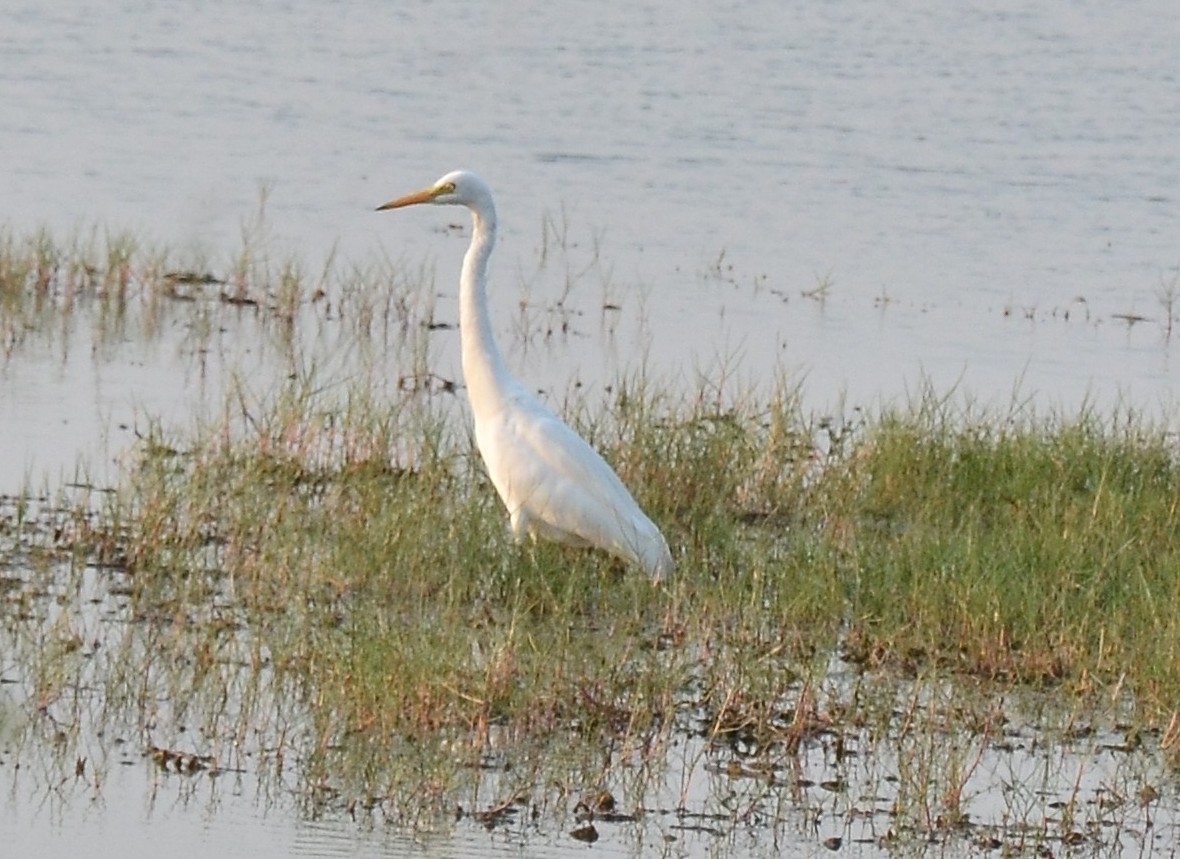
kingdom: Animalia
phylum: Chordata
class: Aves
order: Pelecaniformes
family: Ardeidae
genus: Egretta
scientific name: Egretta intermedia
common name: Intermediate egret
